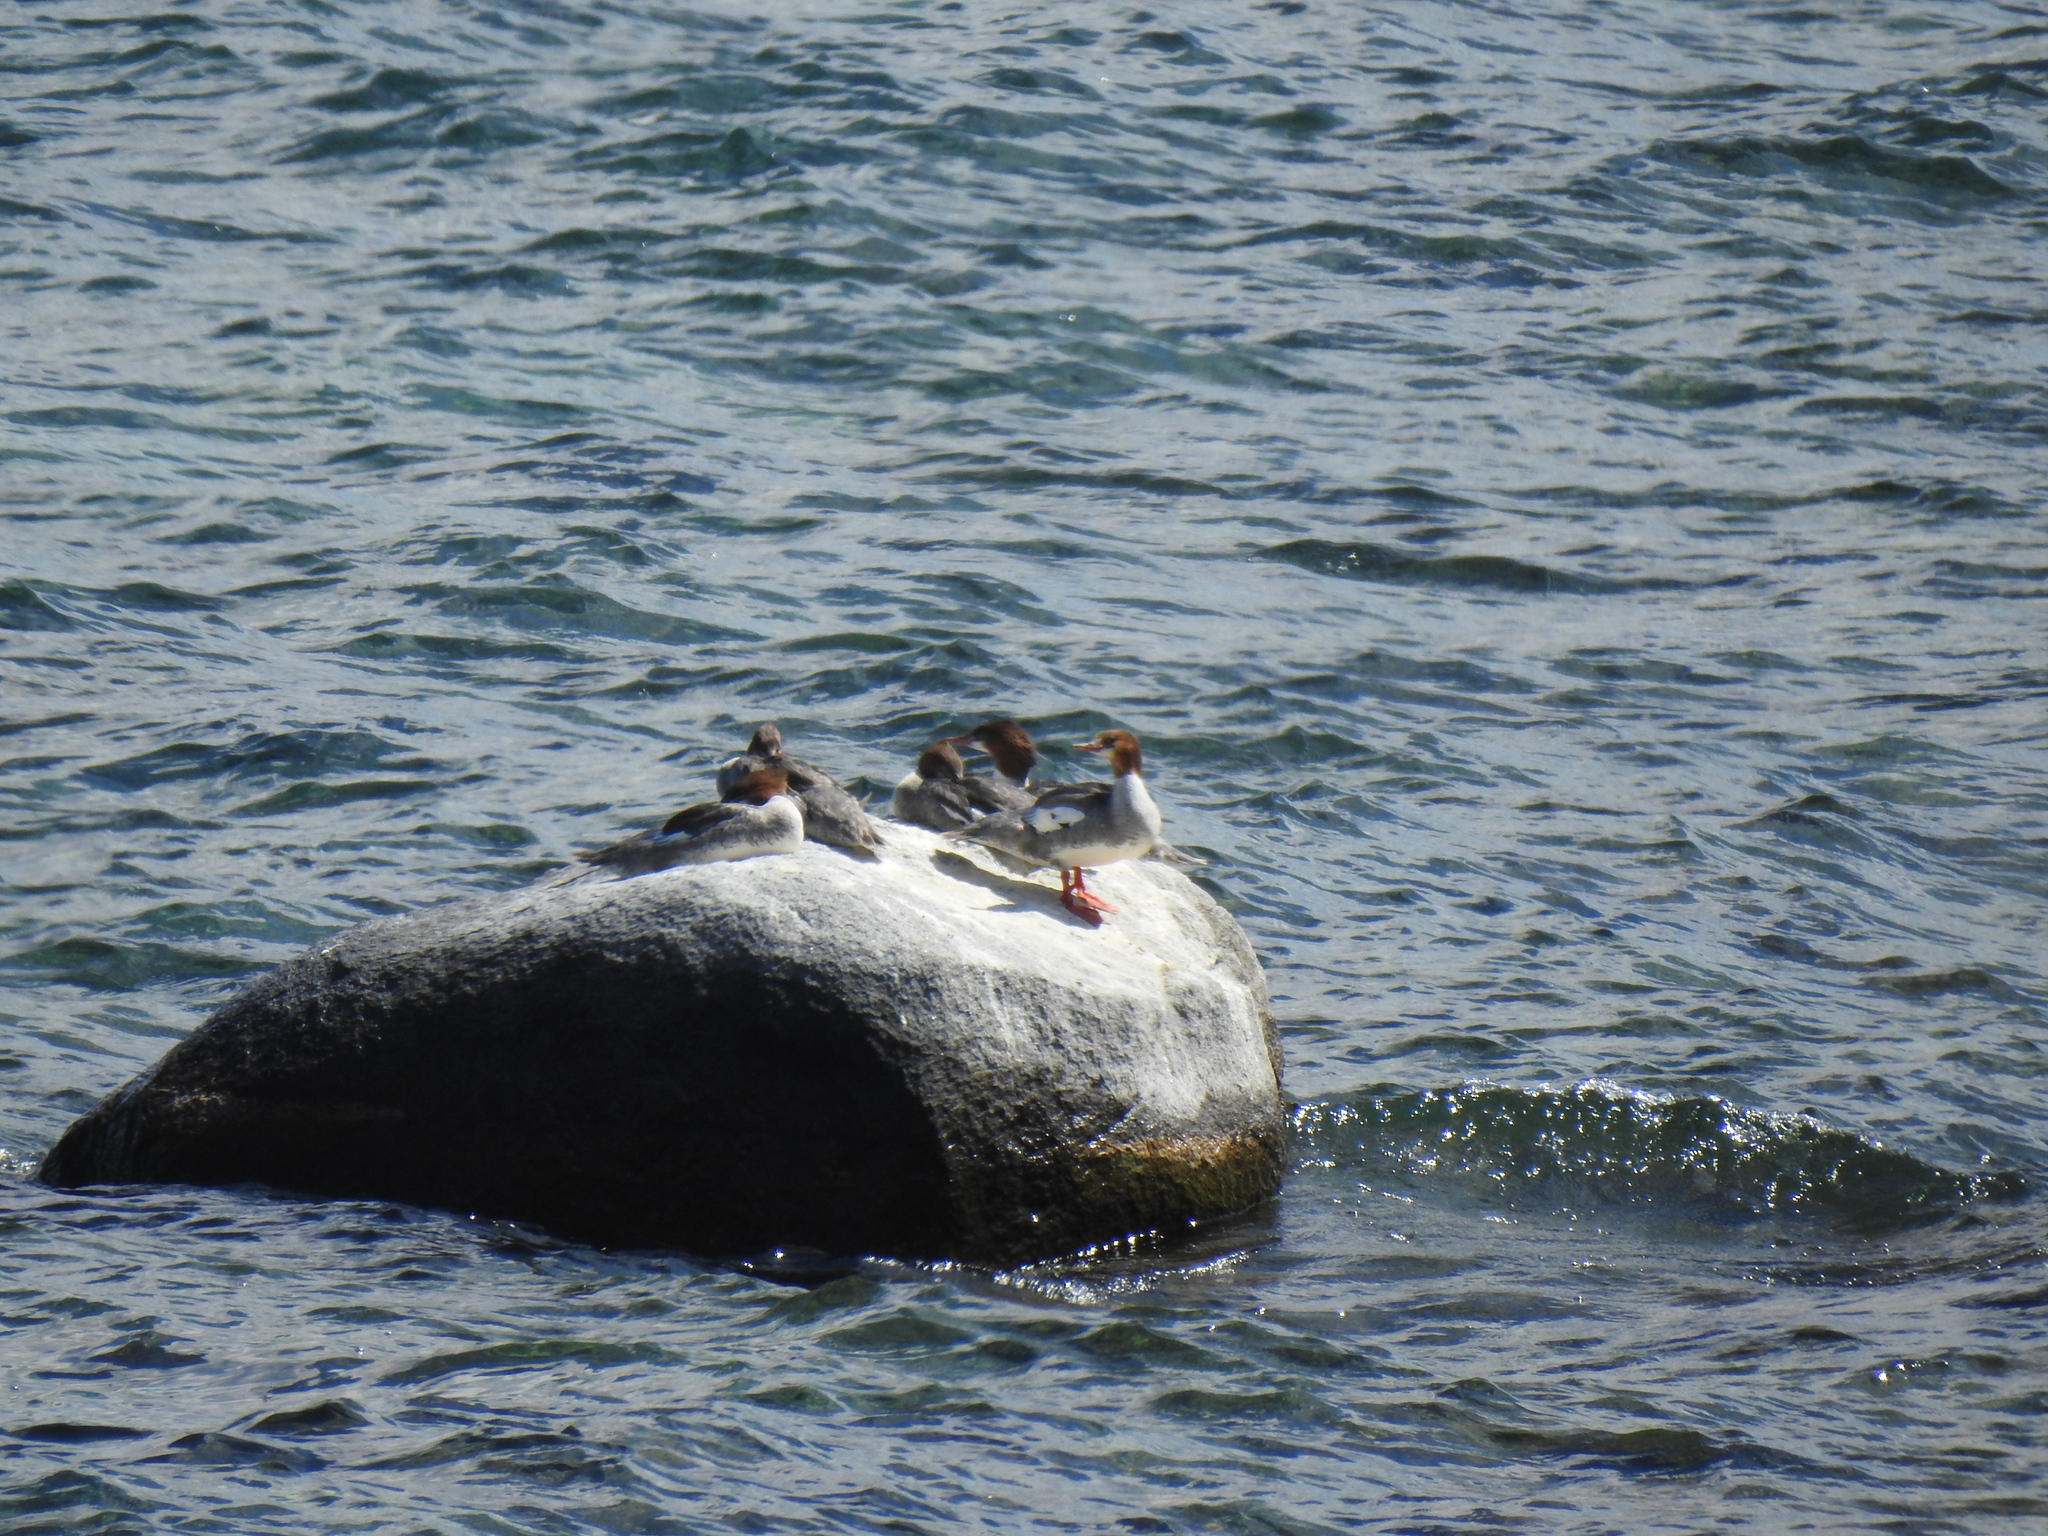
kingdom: Animalia
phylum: Chordata
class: Aves
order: Anseriformes
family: Anatidae
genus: Mergus
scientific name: Mergus merganser
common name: Common merganser
